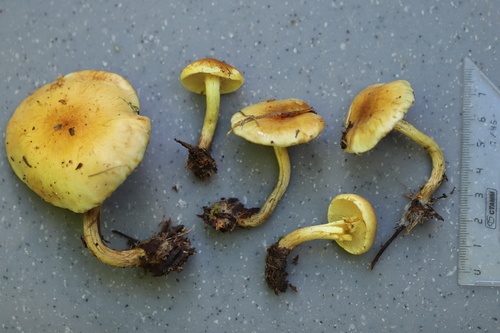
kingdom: Fungi
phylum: Basidiomycota
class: Agaricomycetes
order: Agaricales
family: Strophariaceae
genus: Pholiota
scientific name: Pholiota
